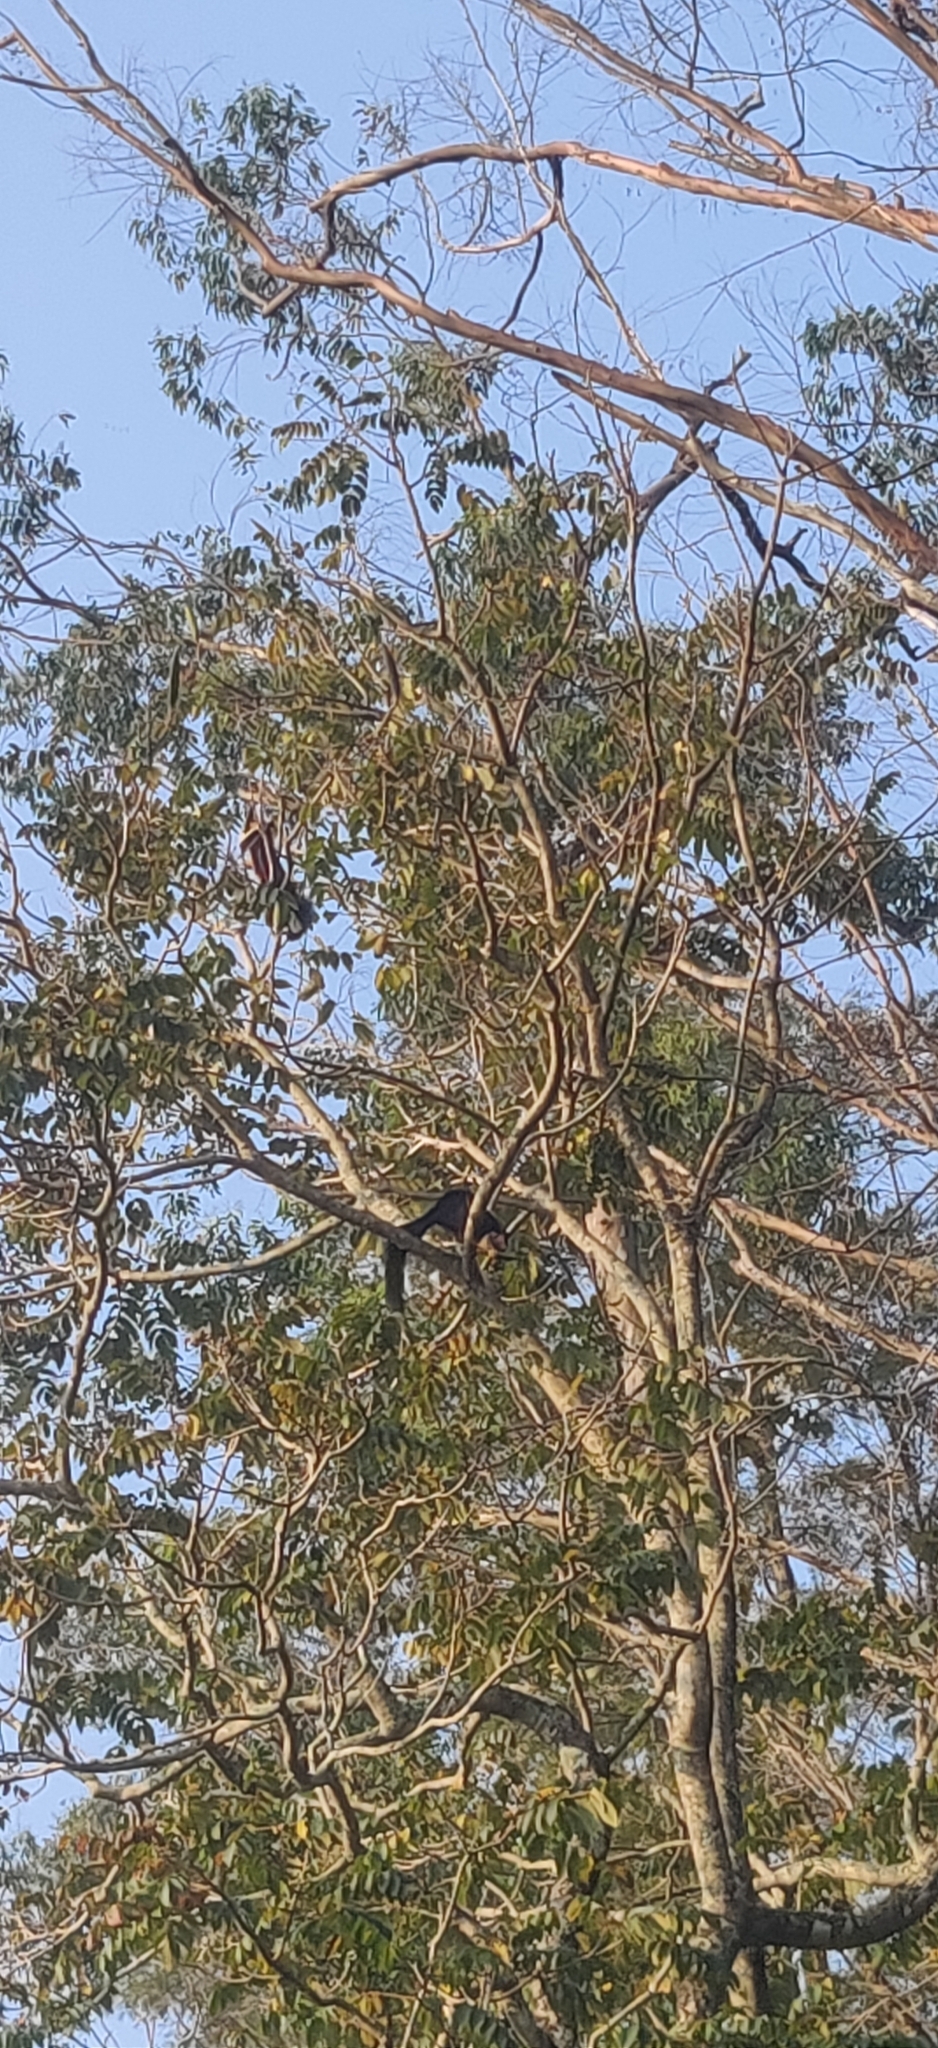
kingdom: Animalia
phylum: Chordata
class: Mammalia
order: Rodentia
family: Sciuridae
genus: Ratufa
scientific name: Ratufa indica
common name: Indian giant squirrel
